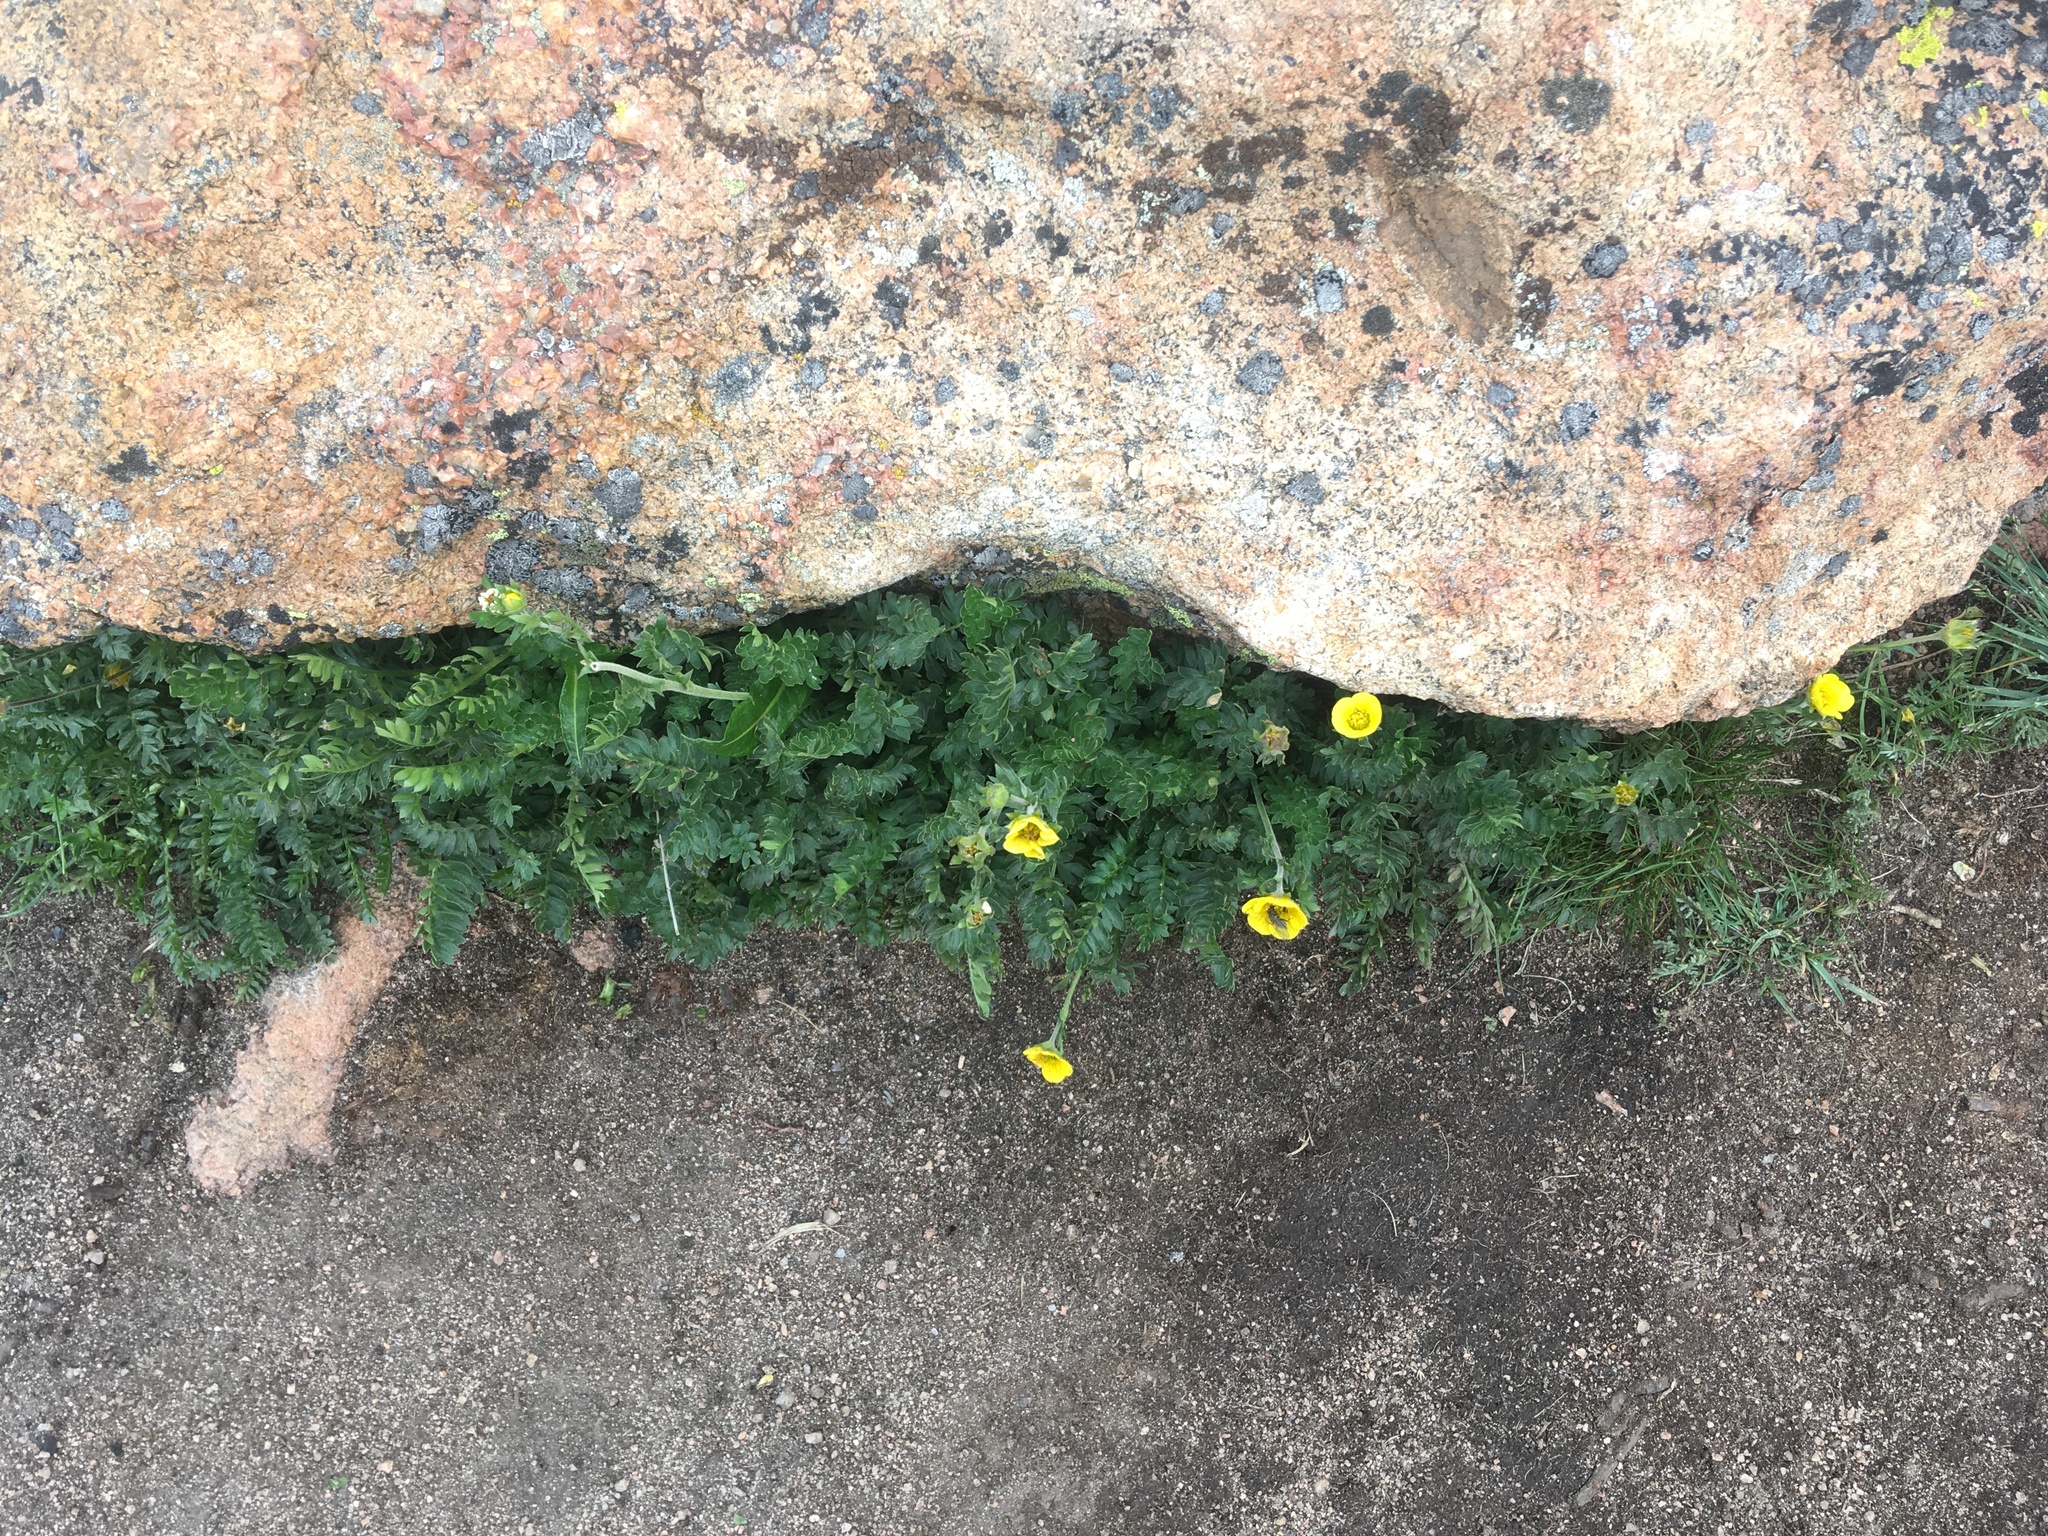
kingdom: Plantae
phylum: Tracheophyta
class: Magnoliopsida
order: Rosales
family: Rosaceae
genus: Geum
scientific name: Geum rossii
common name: Alpine avens
